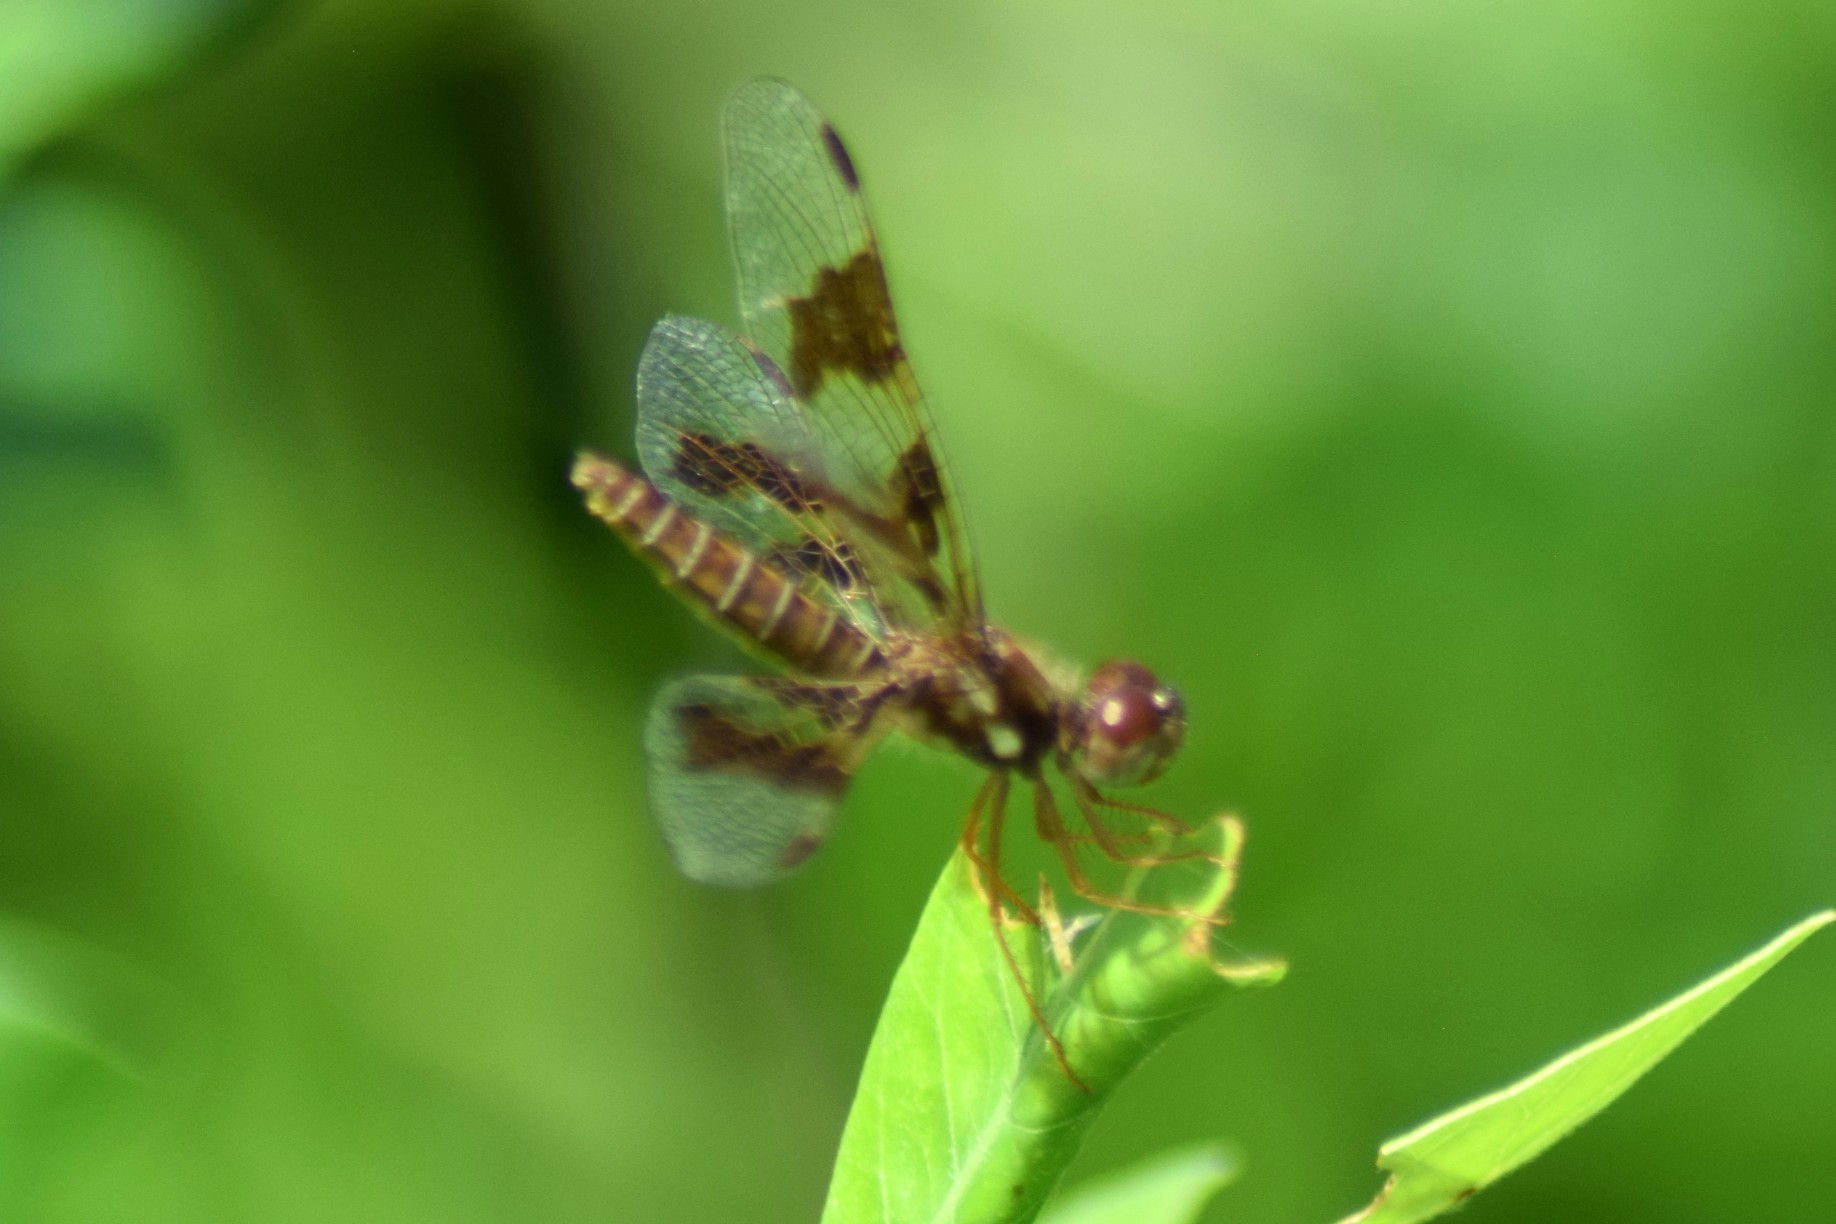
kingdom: Animalia
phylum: Arthropoda
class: Insecta
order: Odonata
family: Libellulidae
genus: Perithemis
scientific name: Perithemis tenera
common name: Eastern amberwing
